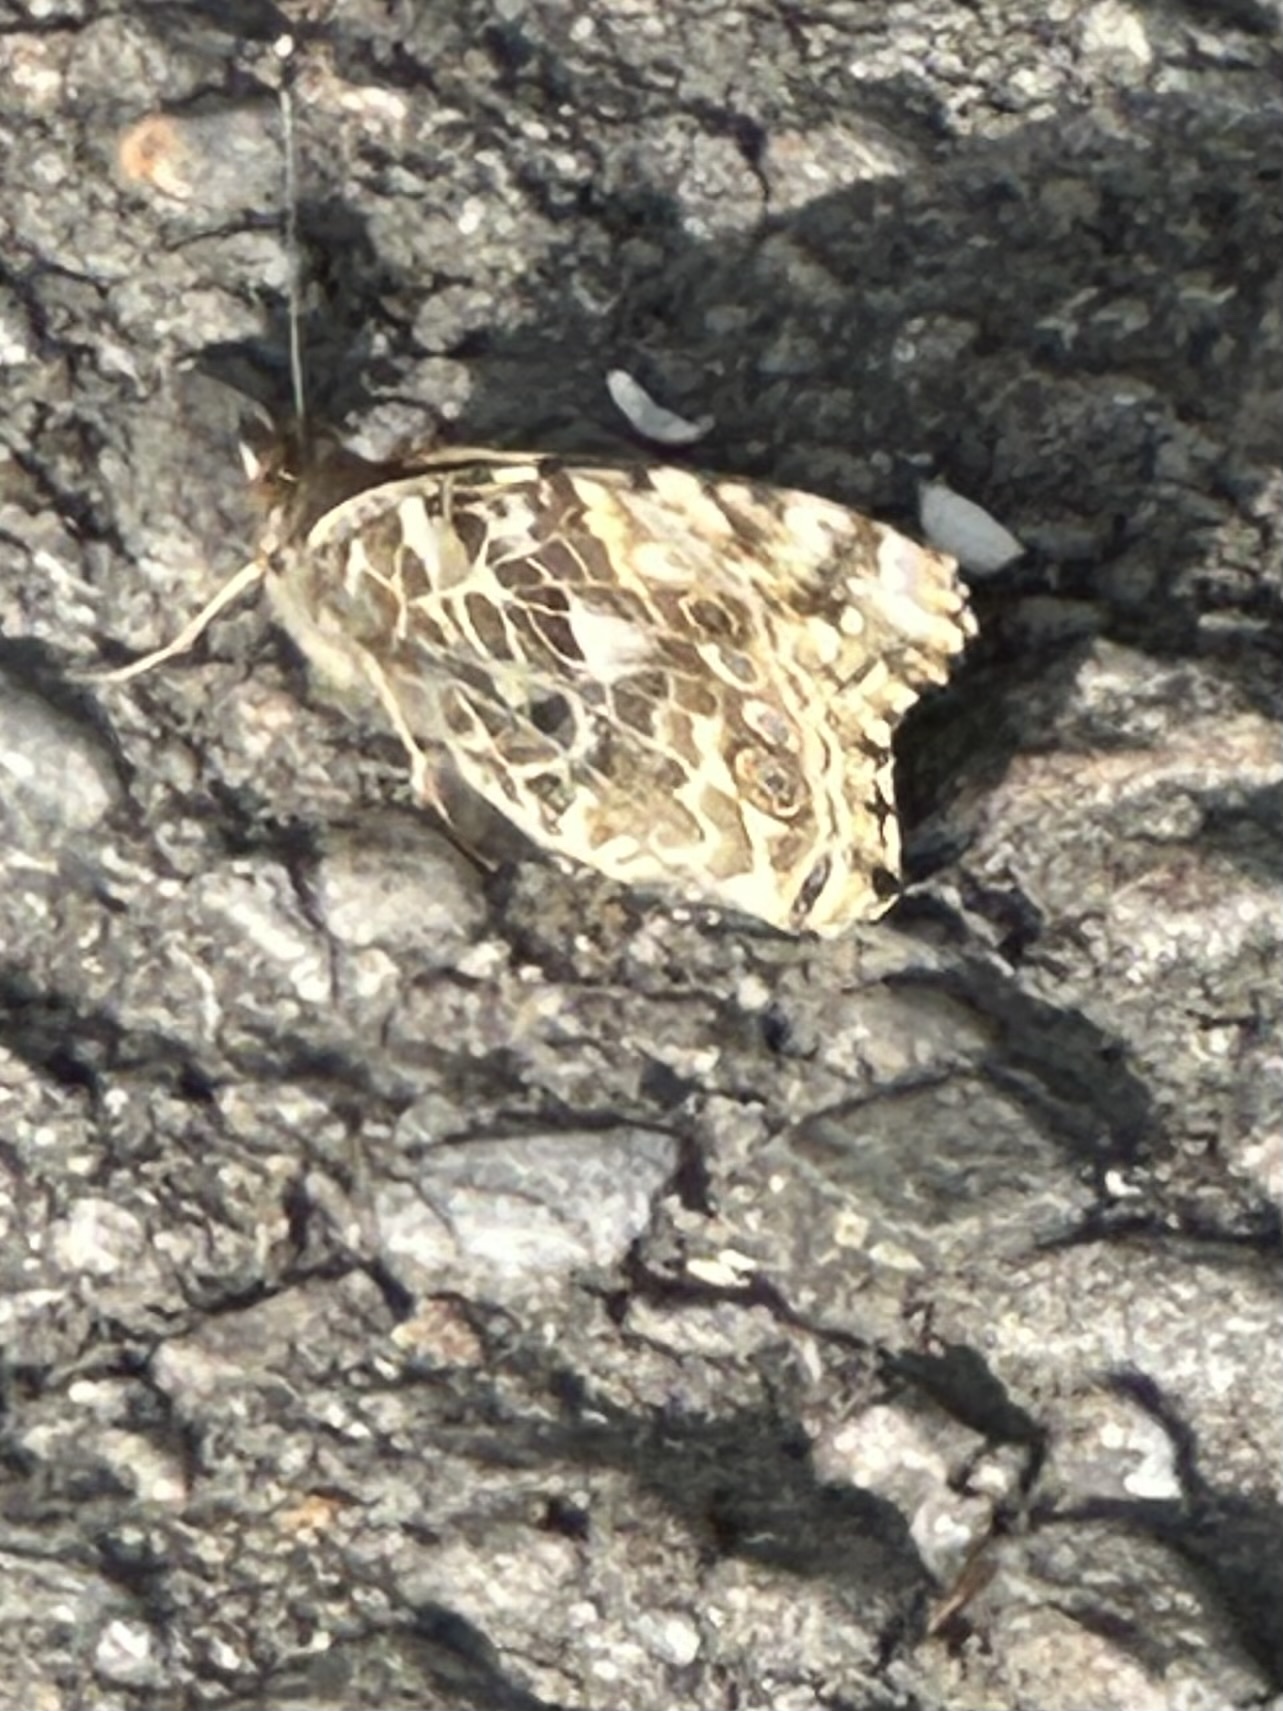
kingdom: Animalia
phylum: Arthropoda
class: Insecta
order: Lepidoptera
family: Nymphalidae
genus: Vanessa
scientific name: Vanessa cardui
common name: Painted lady
